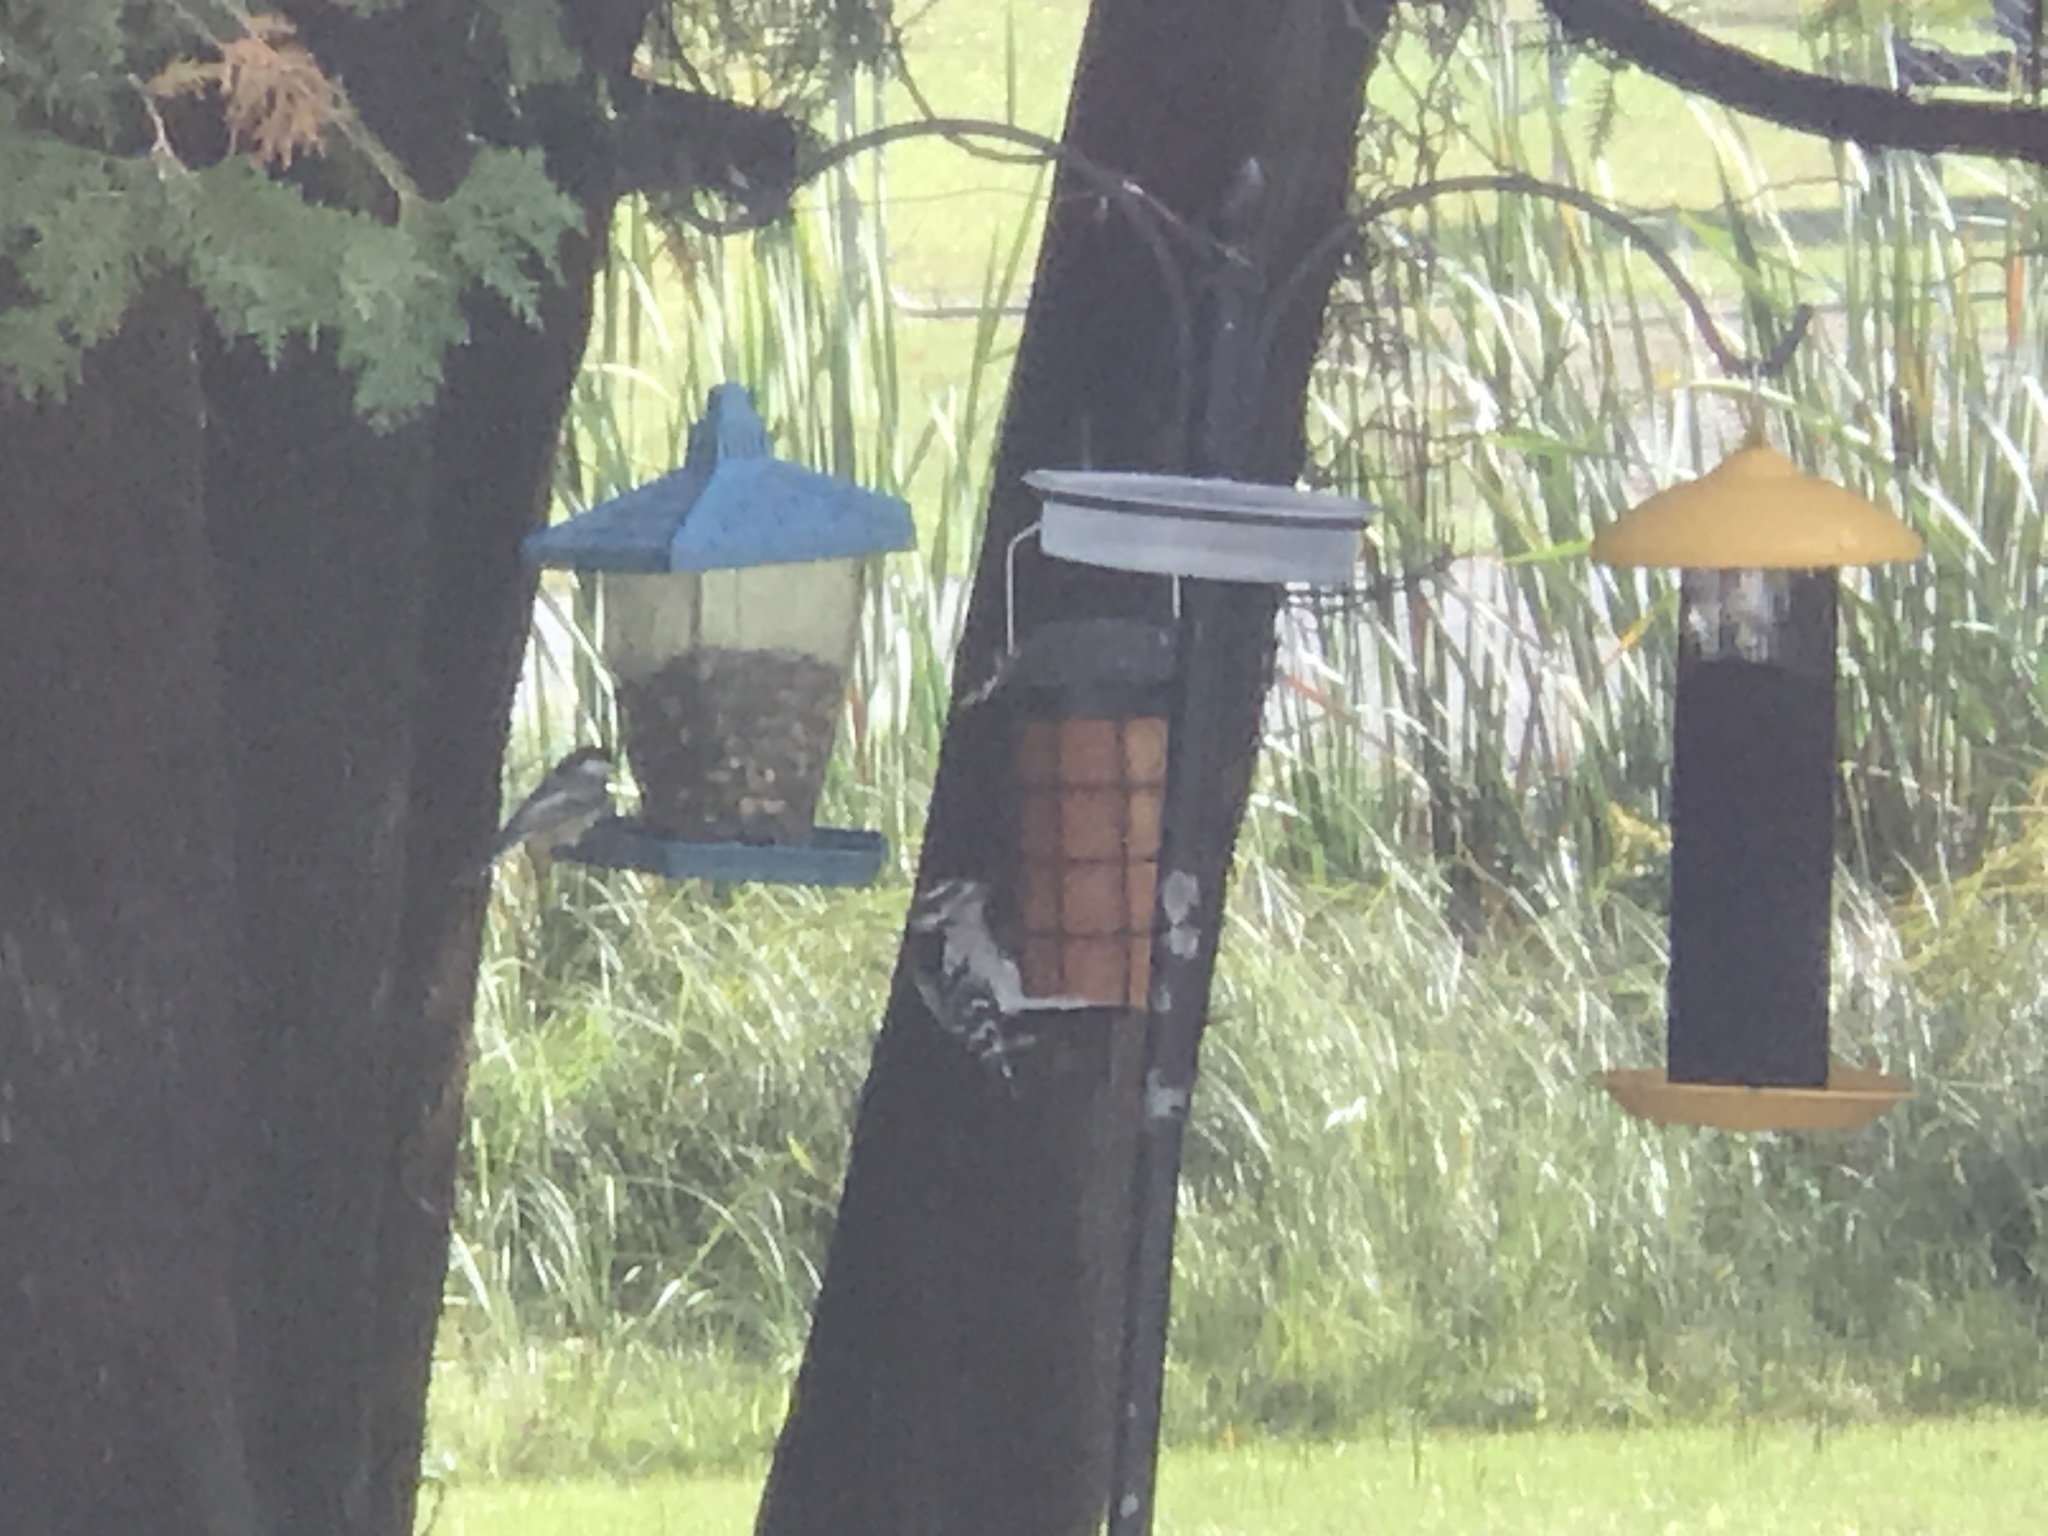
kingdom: Animalia
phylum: Chordata
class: Aves
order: Piciformes
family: Picidae
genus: Dryobates
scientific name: Dryobates pubescens
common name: Downy woodpecker
